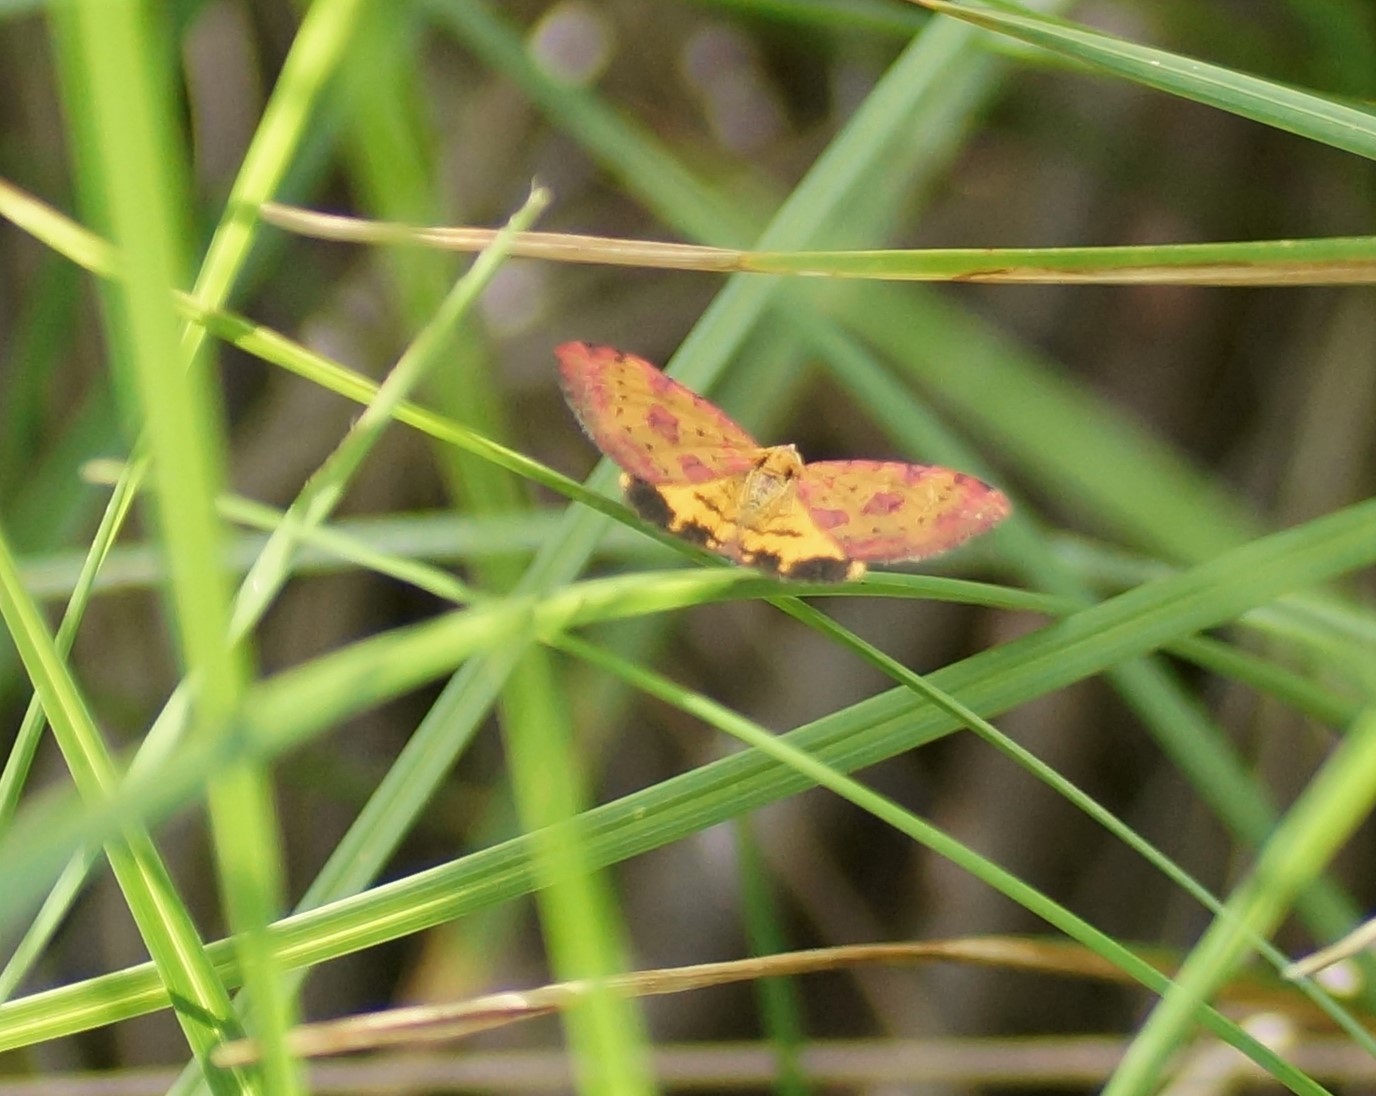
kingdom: Animalia
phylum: Arthropoda
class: Insecta
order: Lepidoptera
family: Geometridae
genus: Chrysolarentia
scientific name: Chrysolarentia perornata
